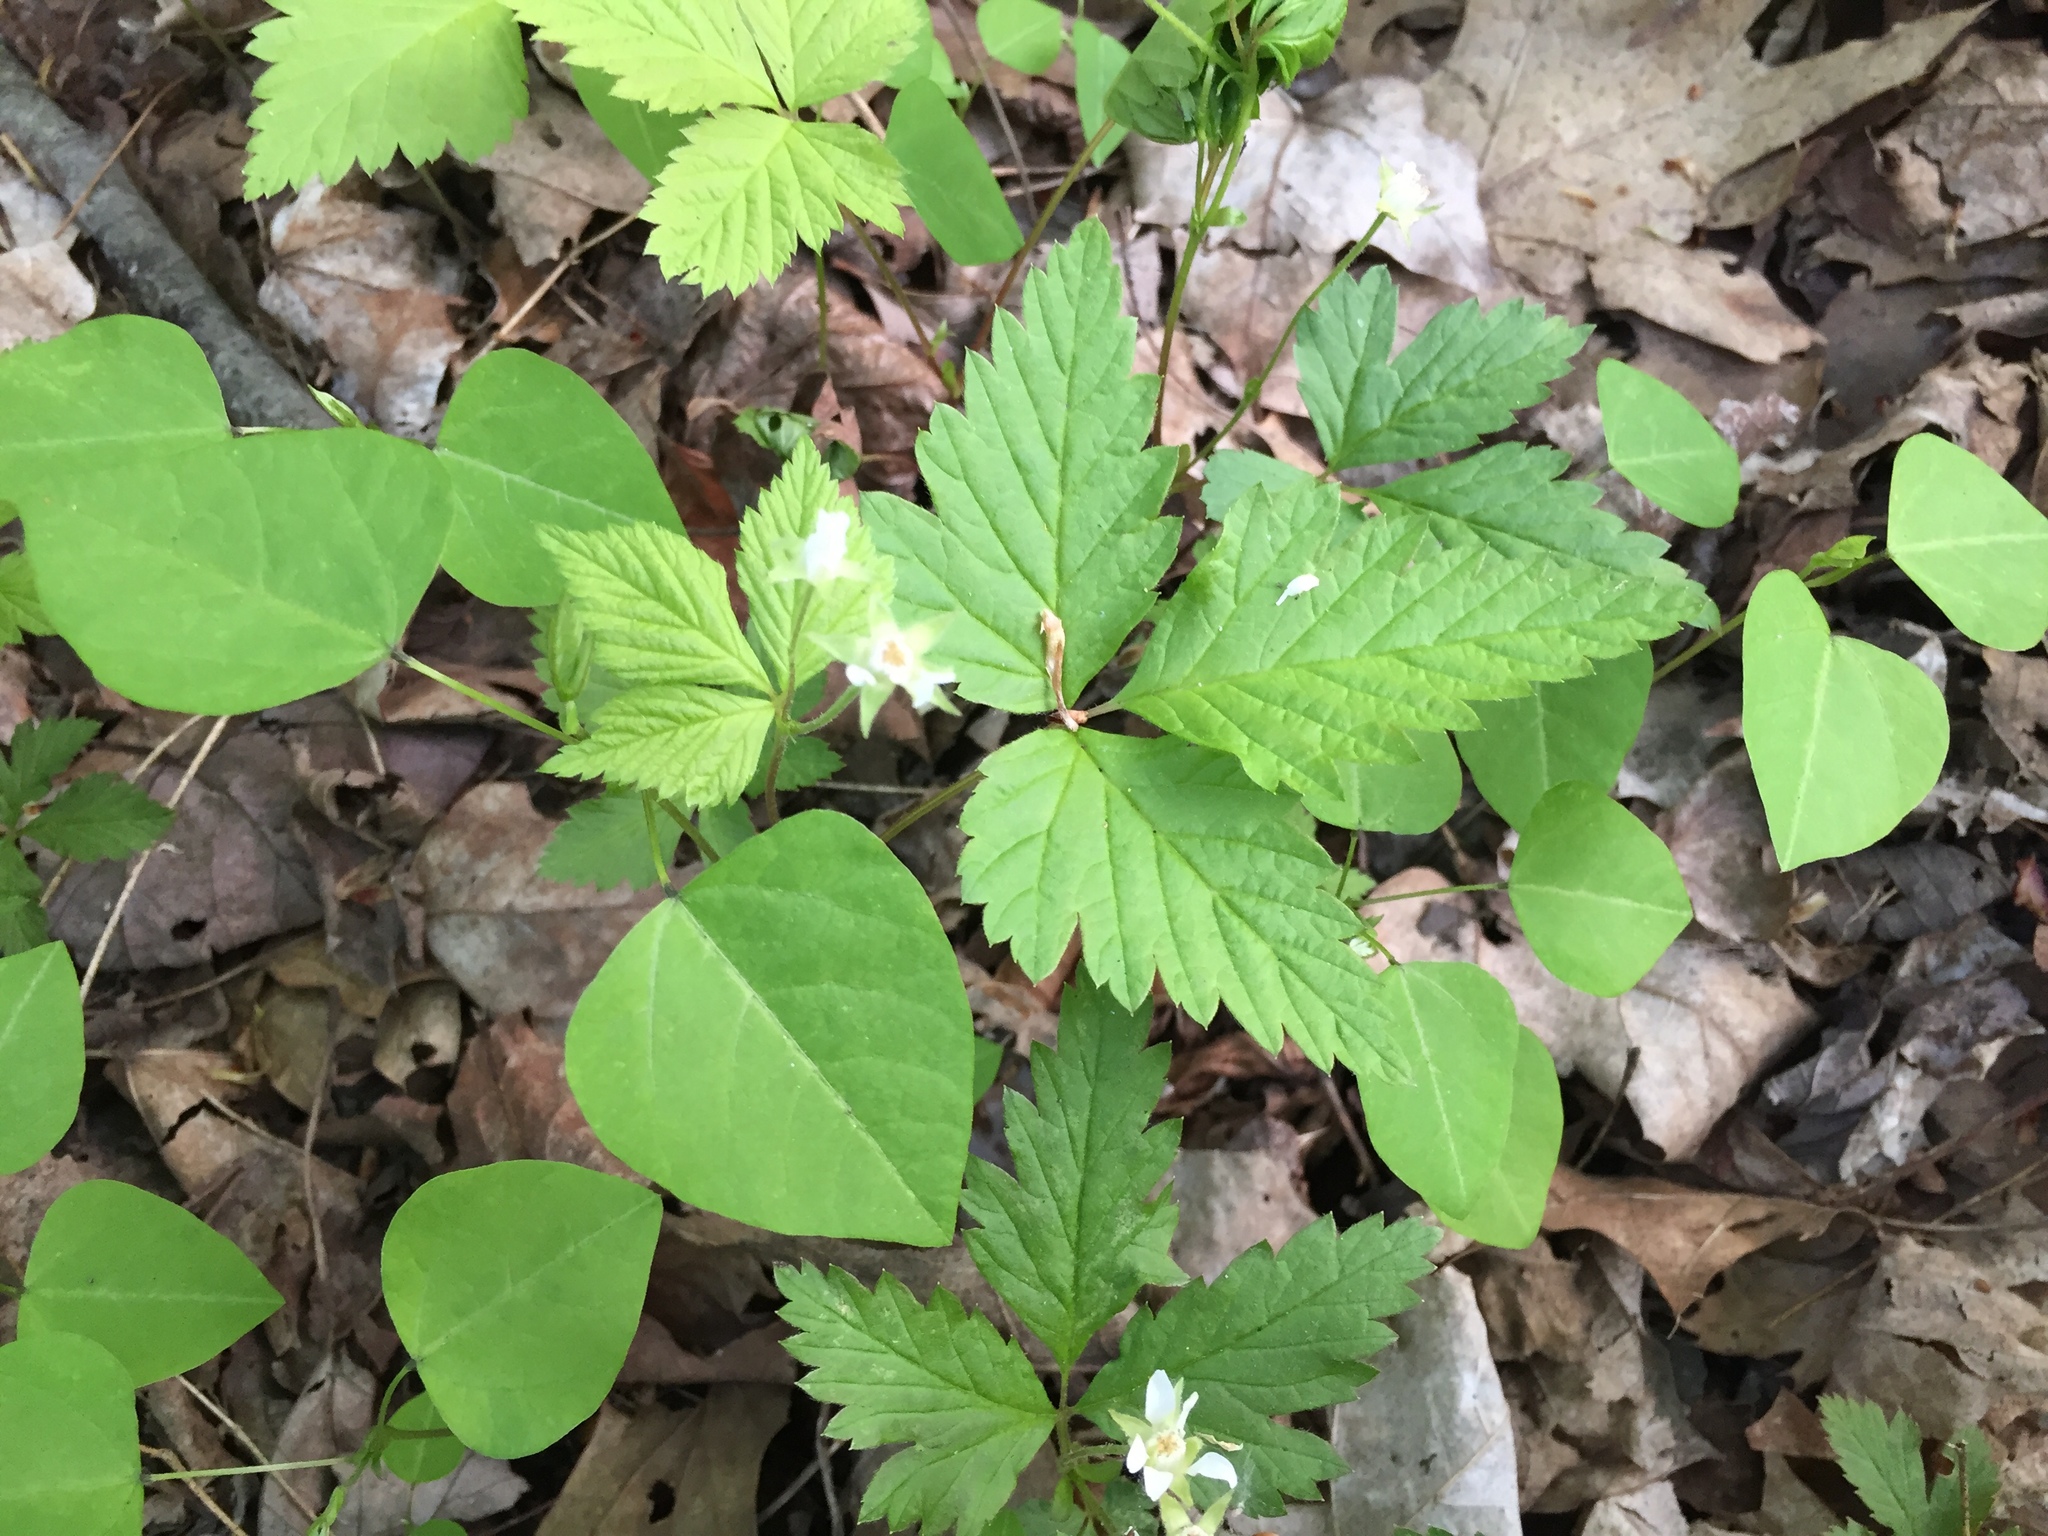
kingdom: Plantae
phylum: Tracheophyta
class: Magnoliopsida
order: Rosales
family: Rosaceae
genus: Rubus
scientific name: Rubus pubescens
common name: Dwarf raspberry
